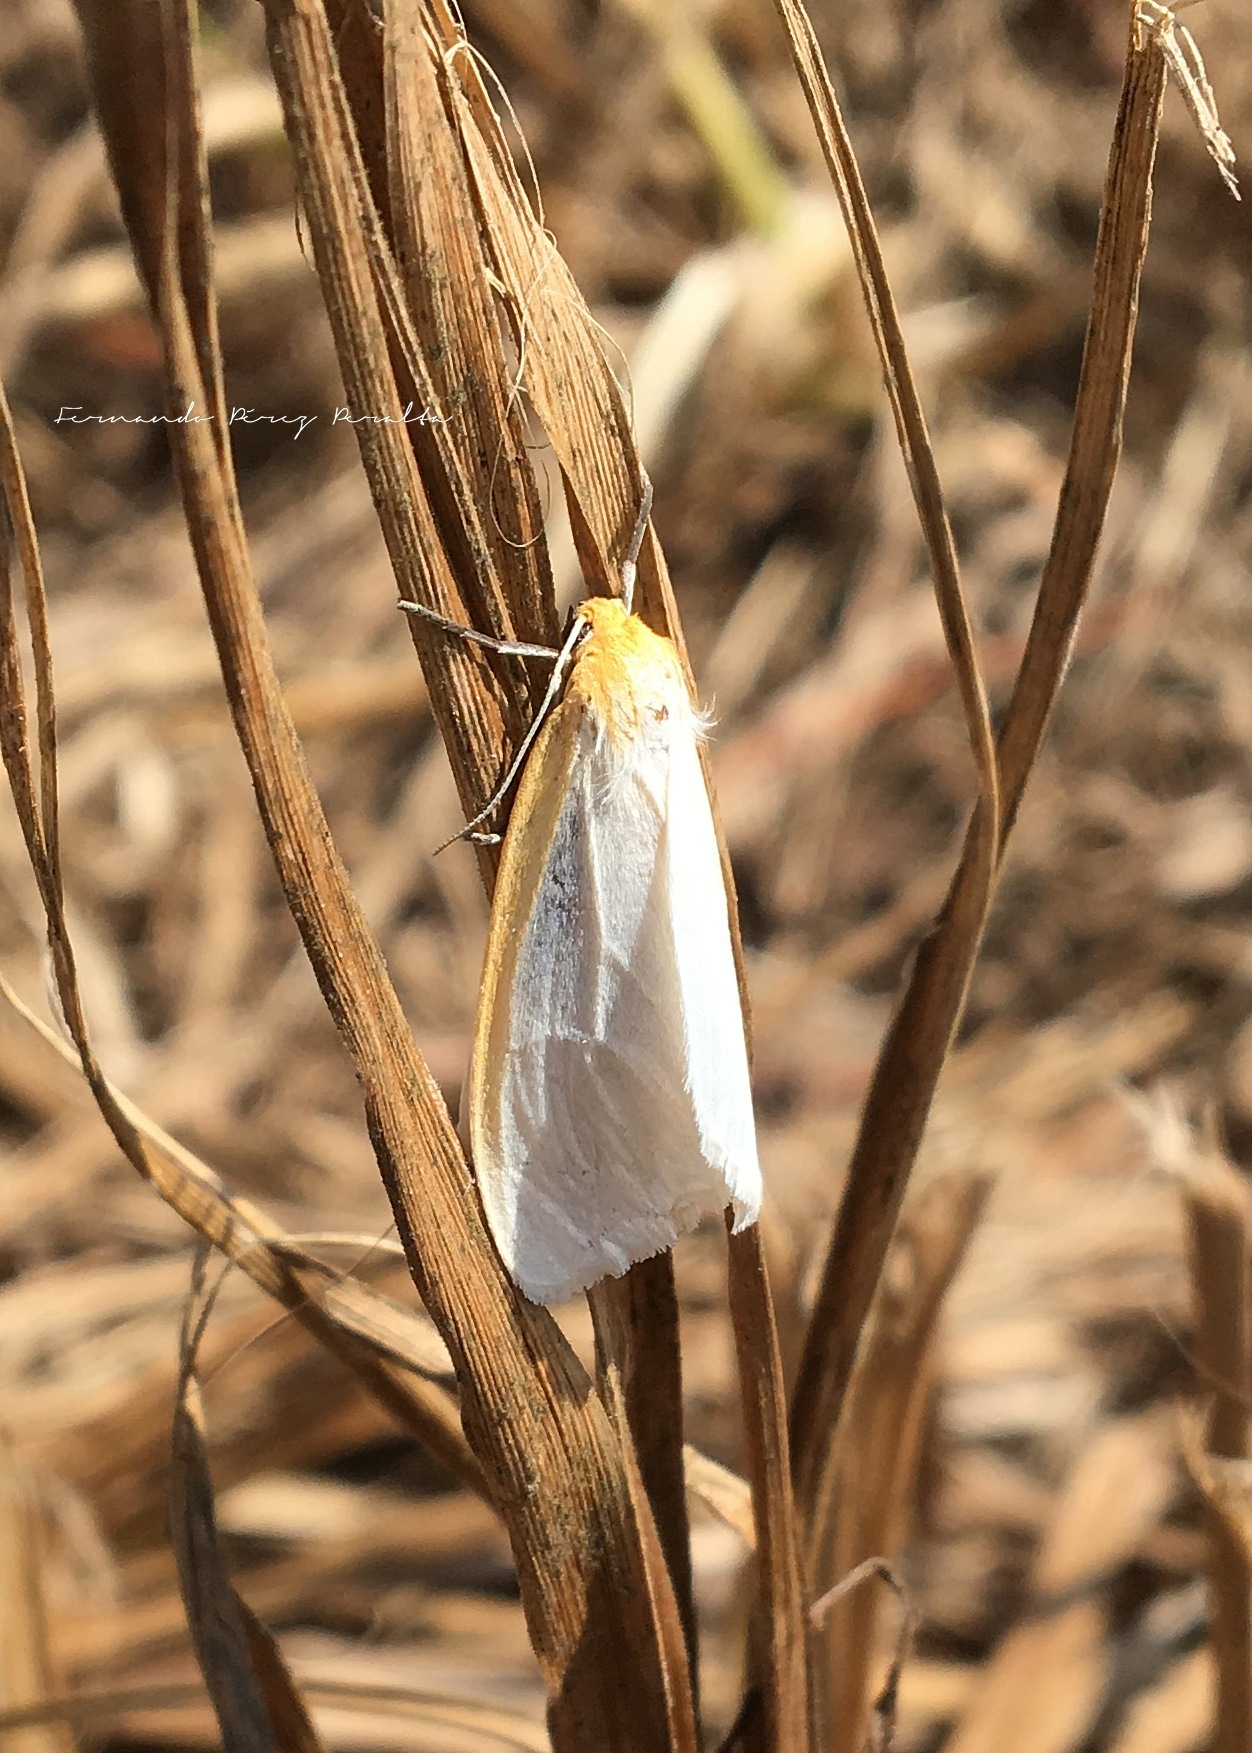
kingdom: Animalia
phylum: Arthropoda
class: Insecta
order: Lepidoptera
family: Erebidae
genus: Cycnia
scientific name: Cycnia tenera
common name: Delicate cycnia moth
